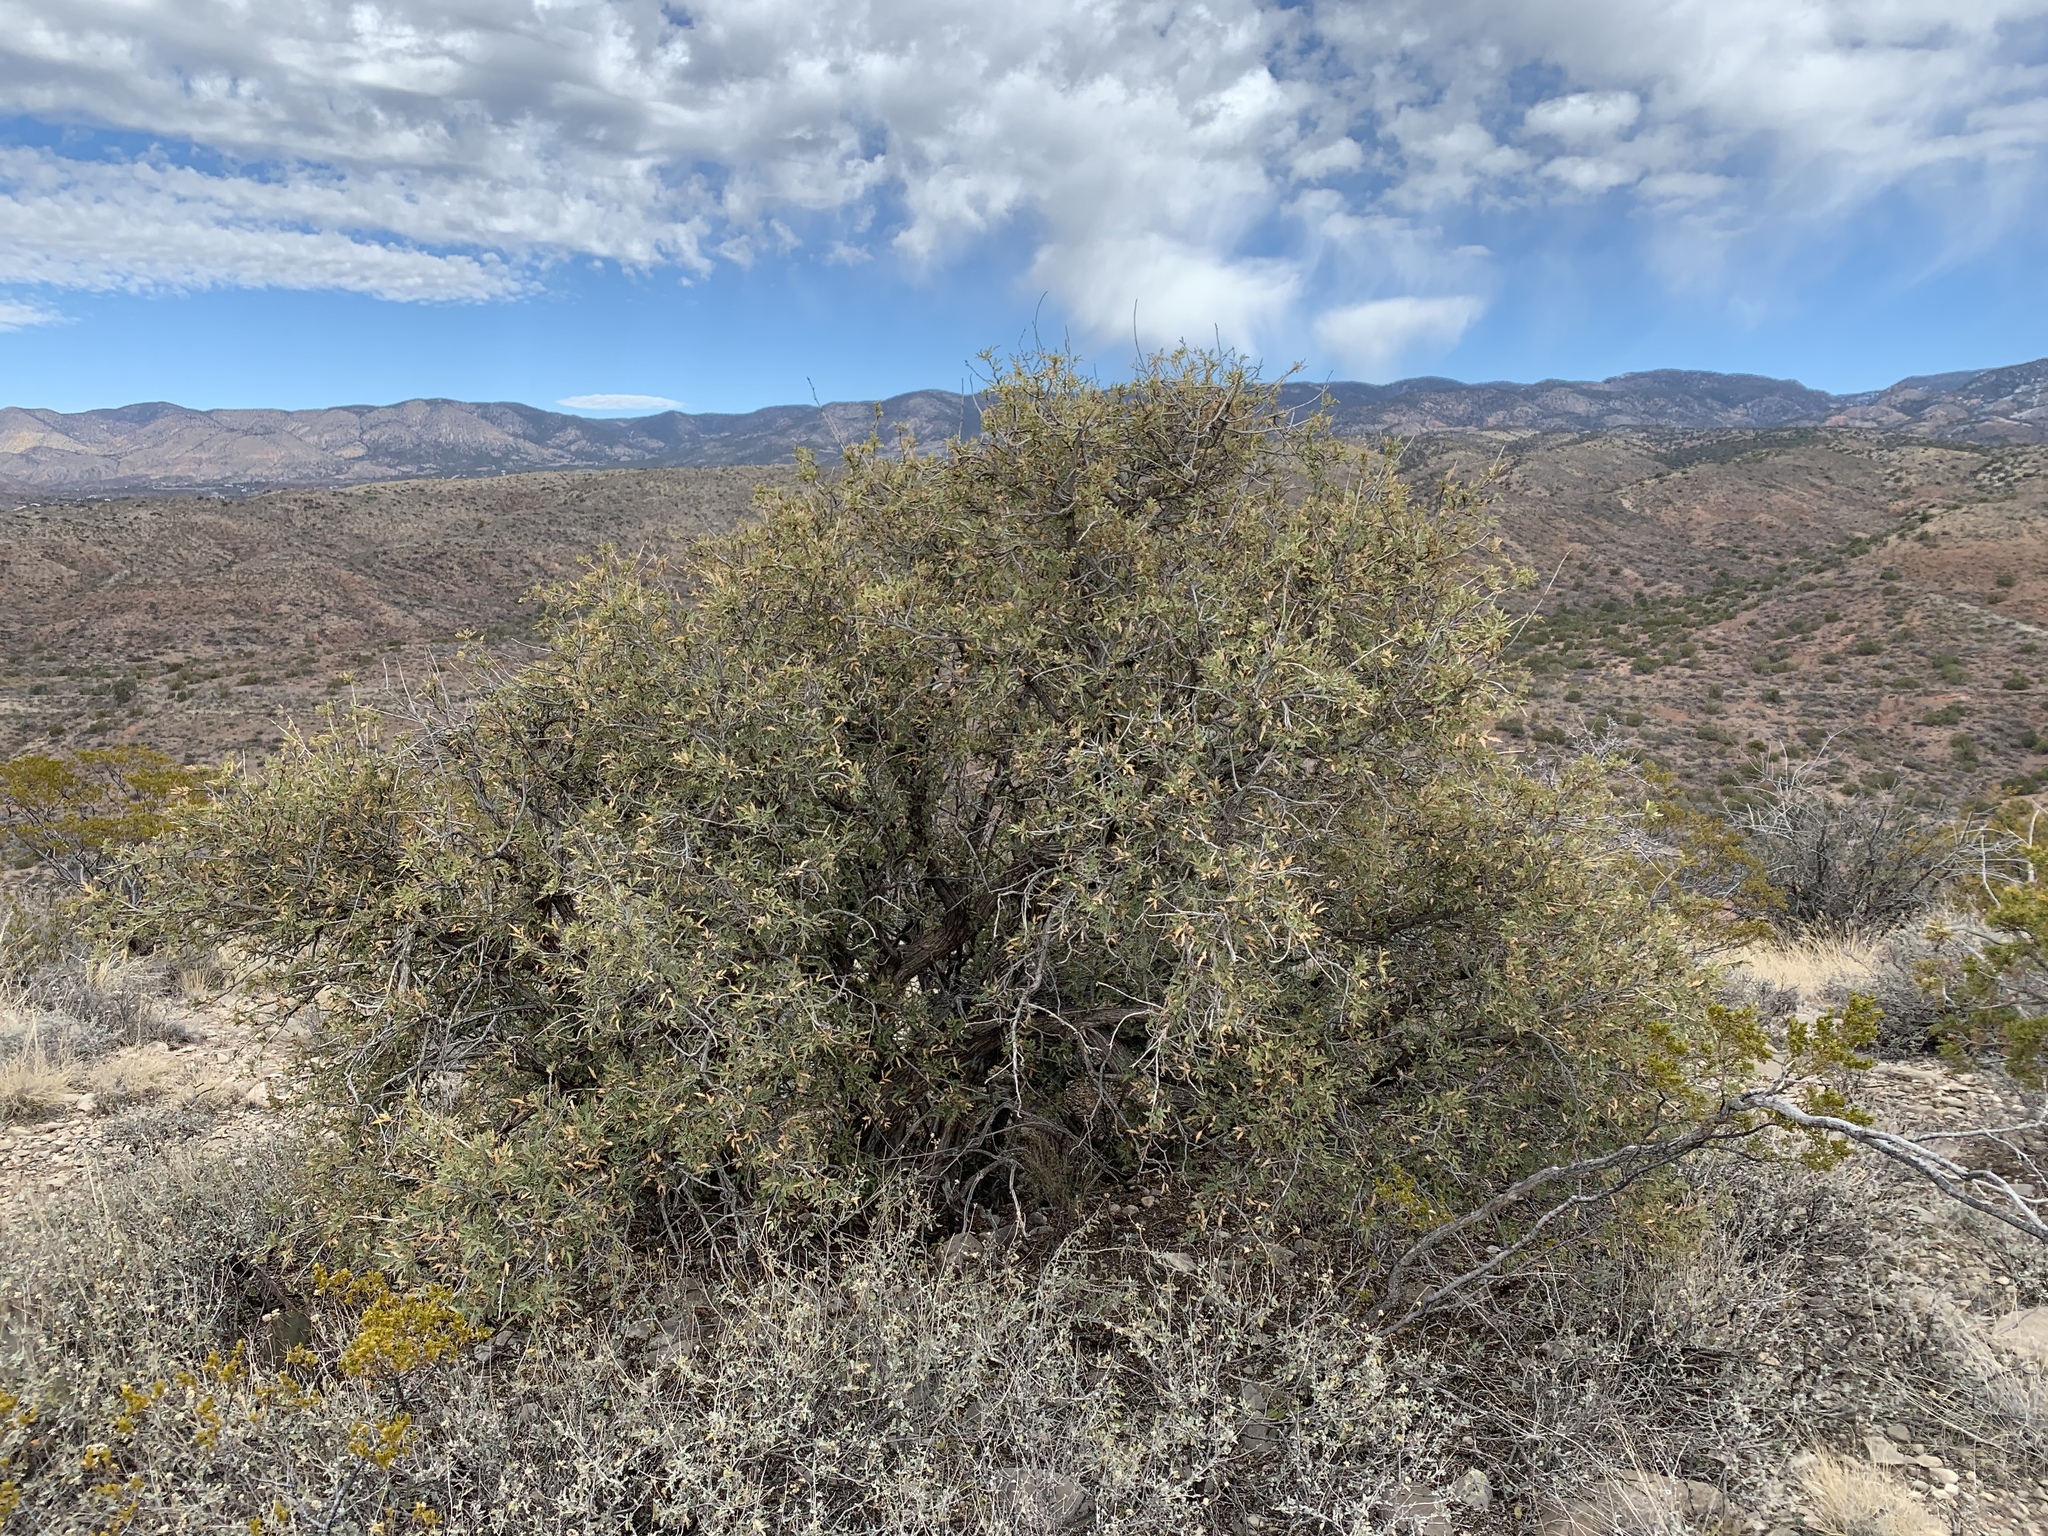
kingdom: Plantae
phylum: Tracheophyta
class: Magnoliopsida
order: Ranunculales
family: Berberidaceae
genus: Alloberberis
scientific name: Alloberberis haematocarpa
